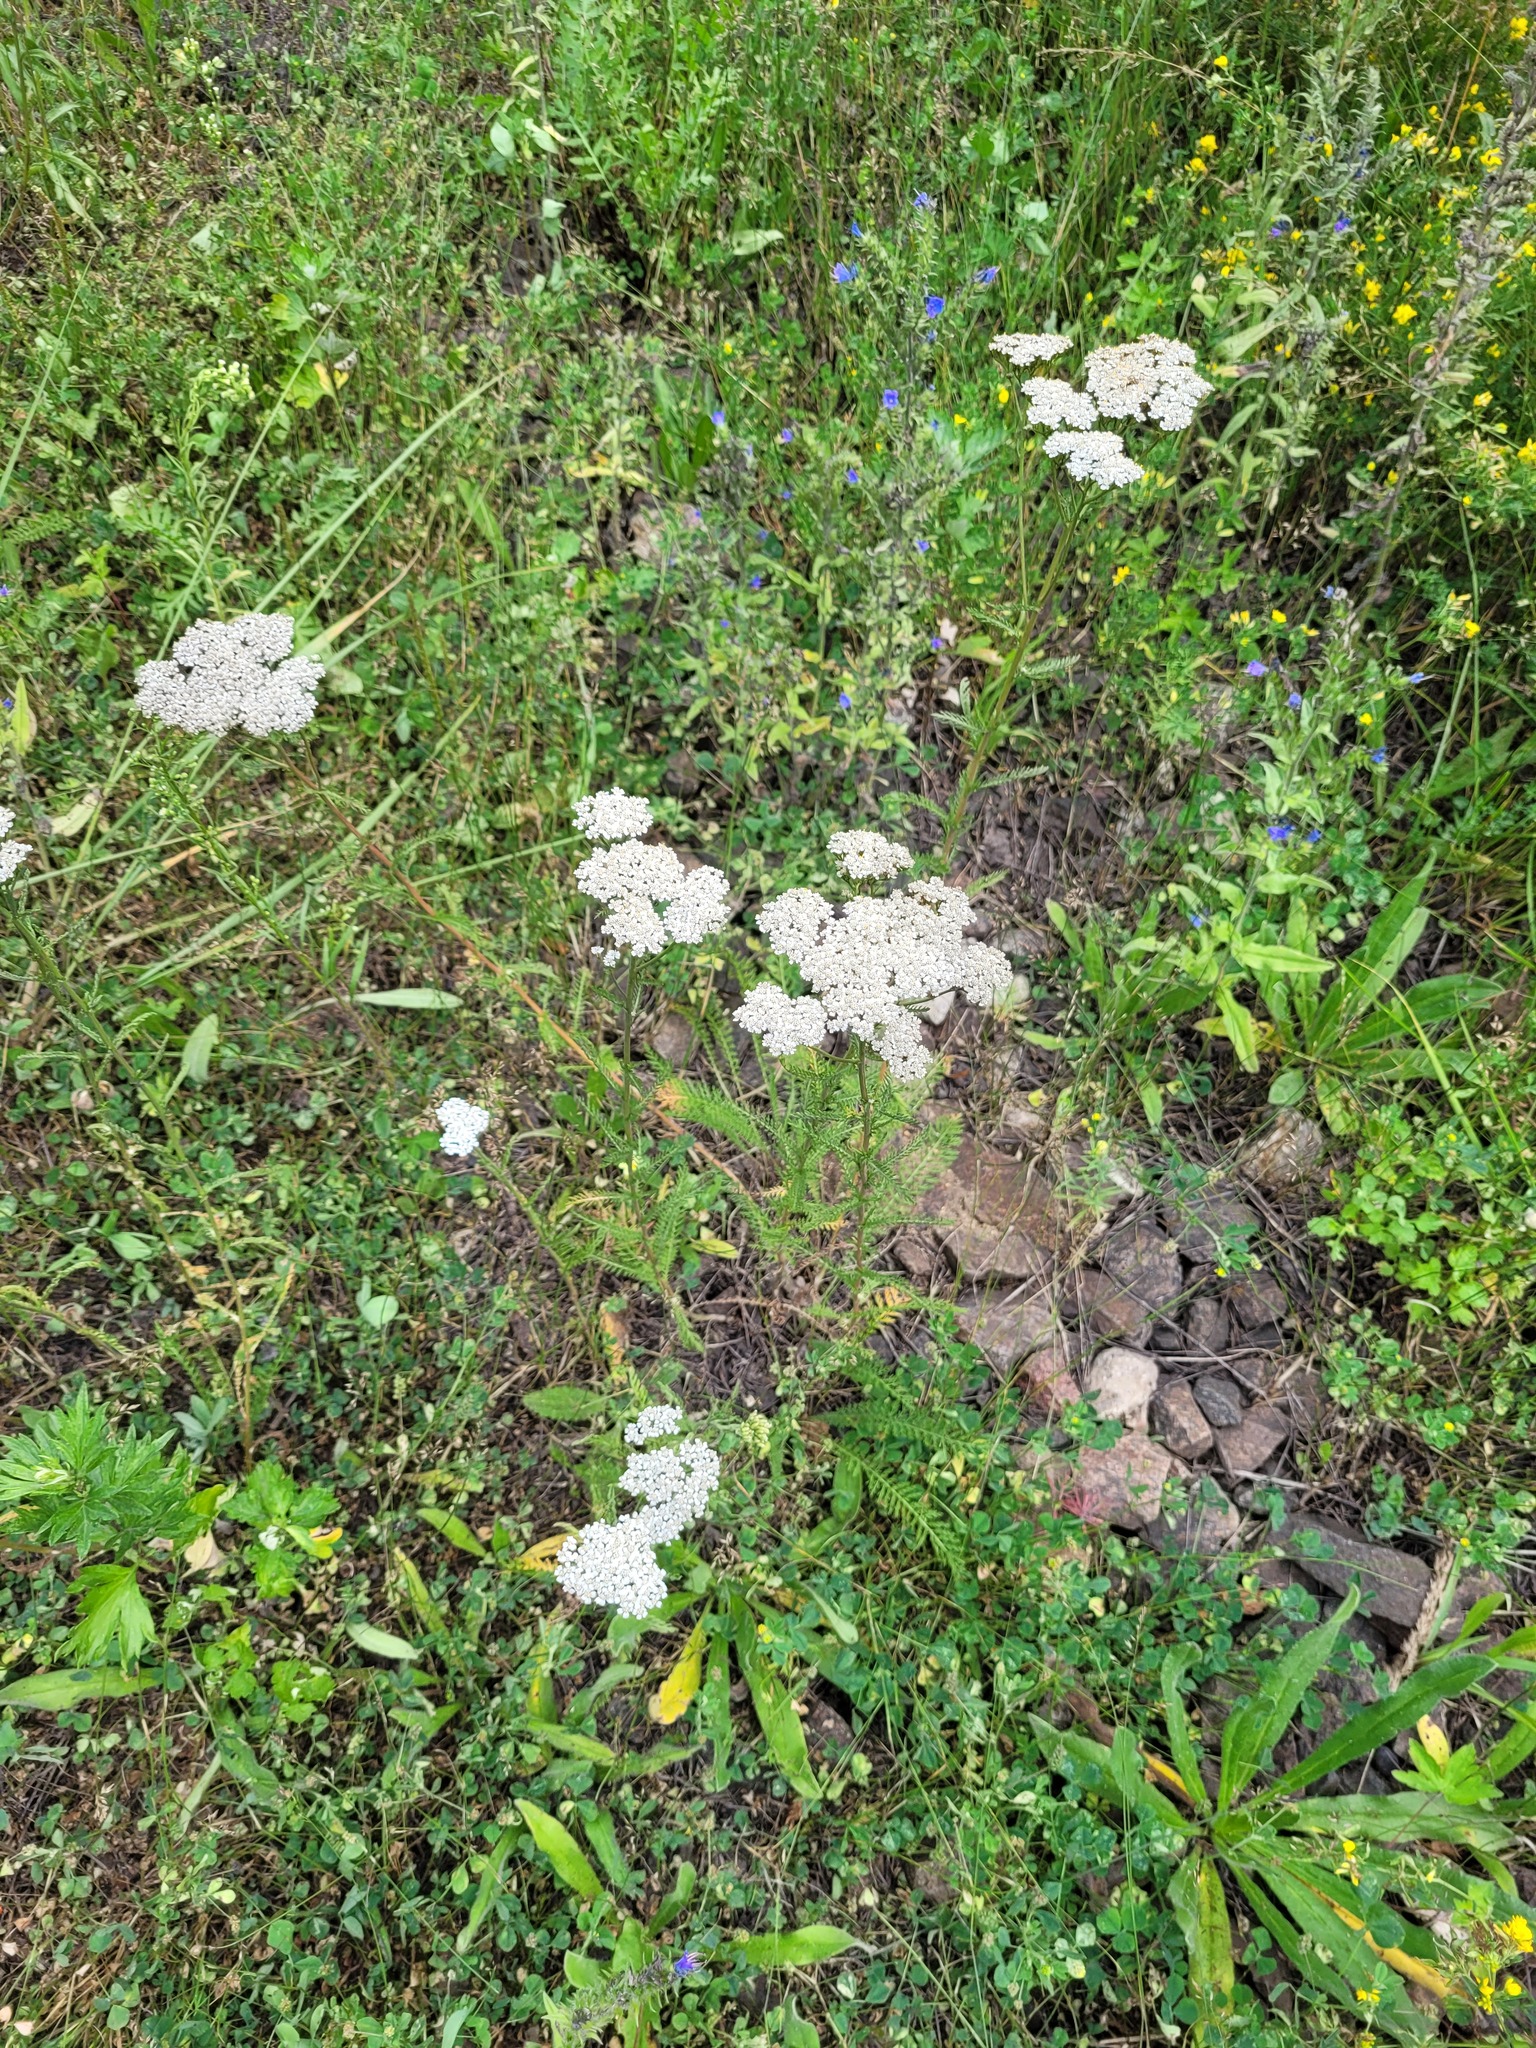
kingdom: Plantae
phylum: Tracheophyta
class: Magnoliopsida
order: Asterales
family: Asteraceae
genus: Achillea
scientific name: Achillea millefolium
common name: Yarrow
